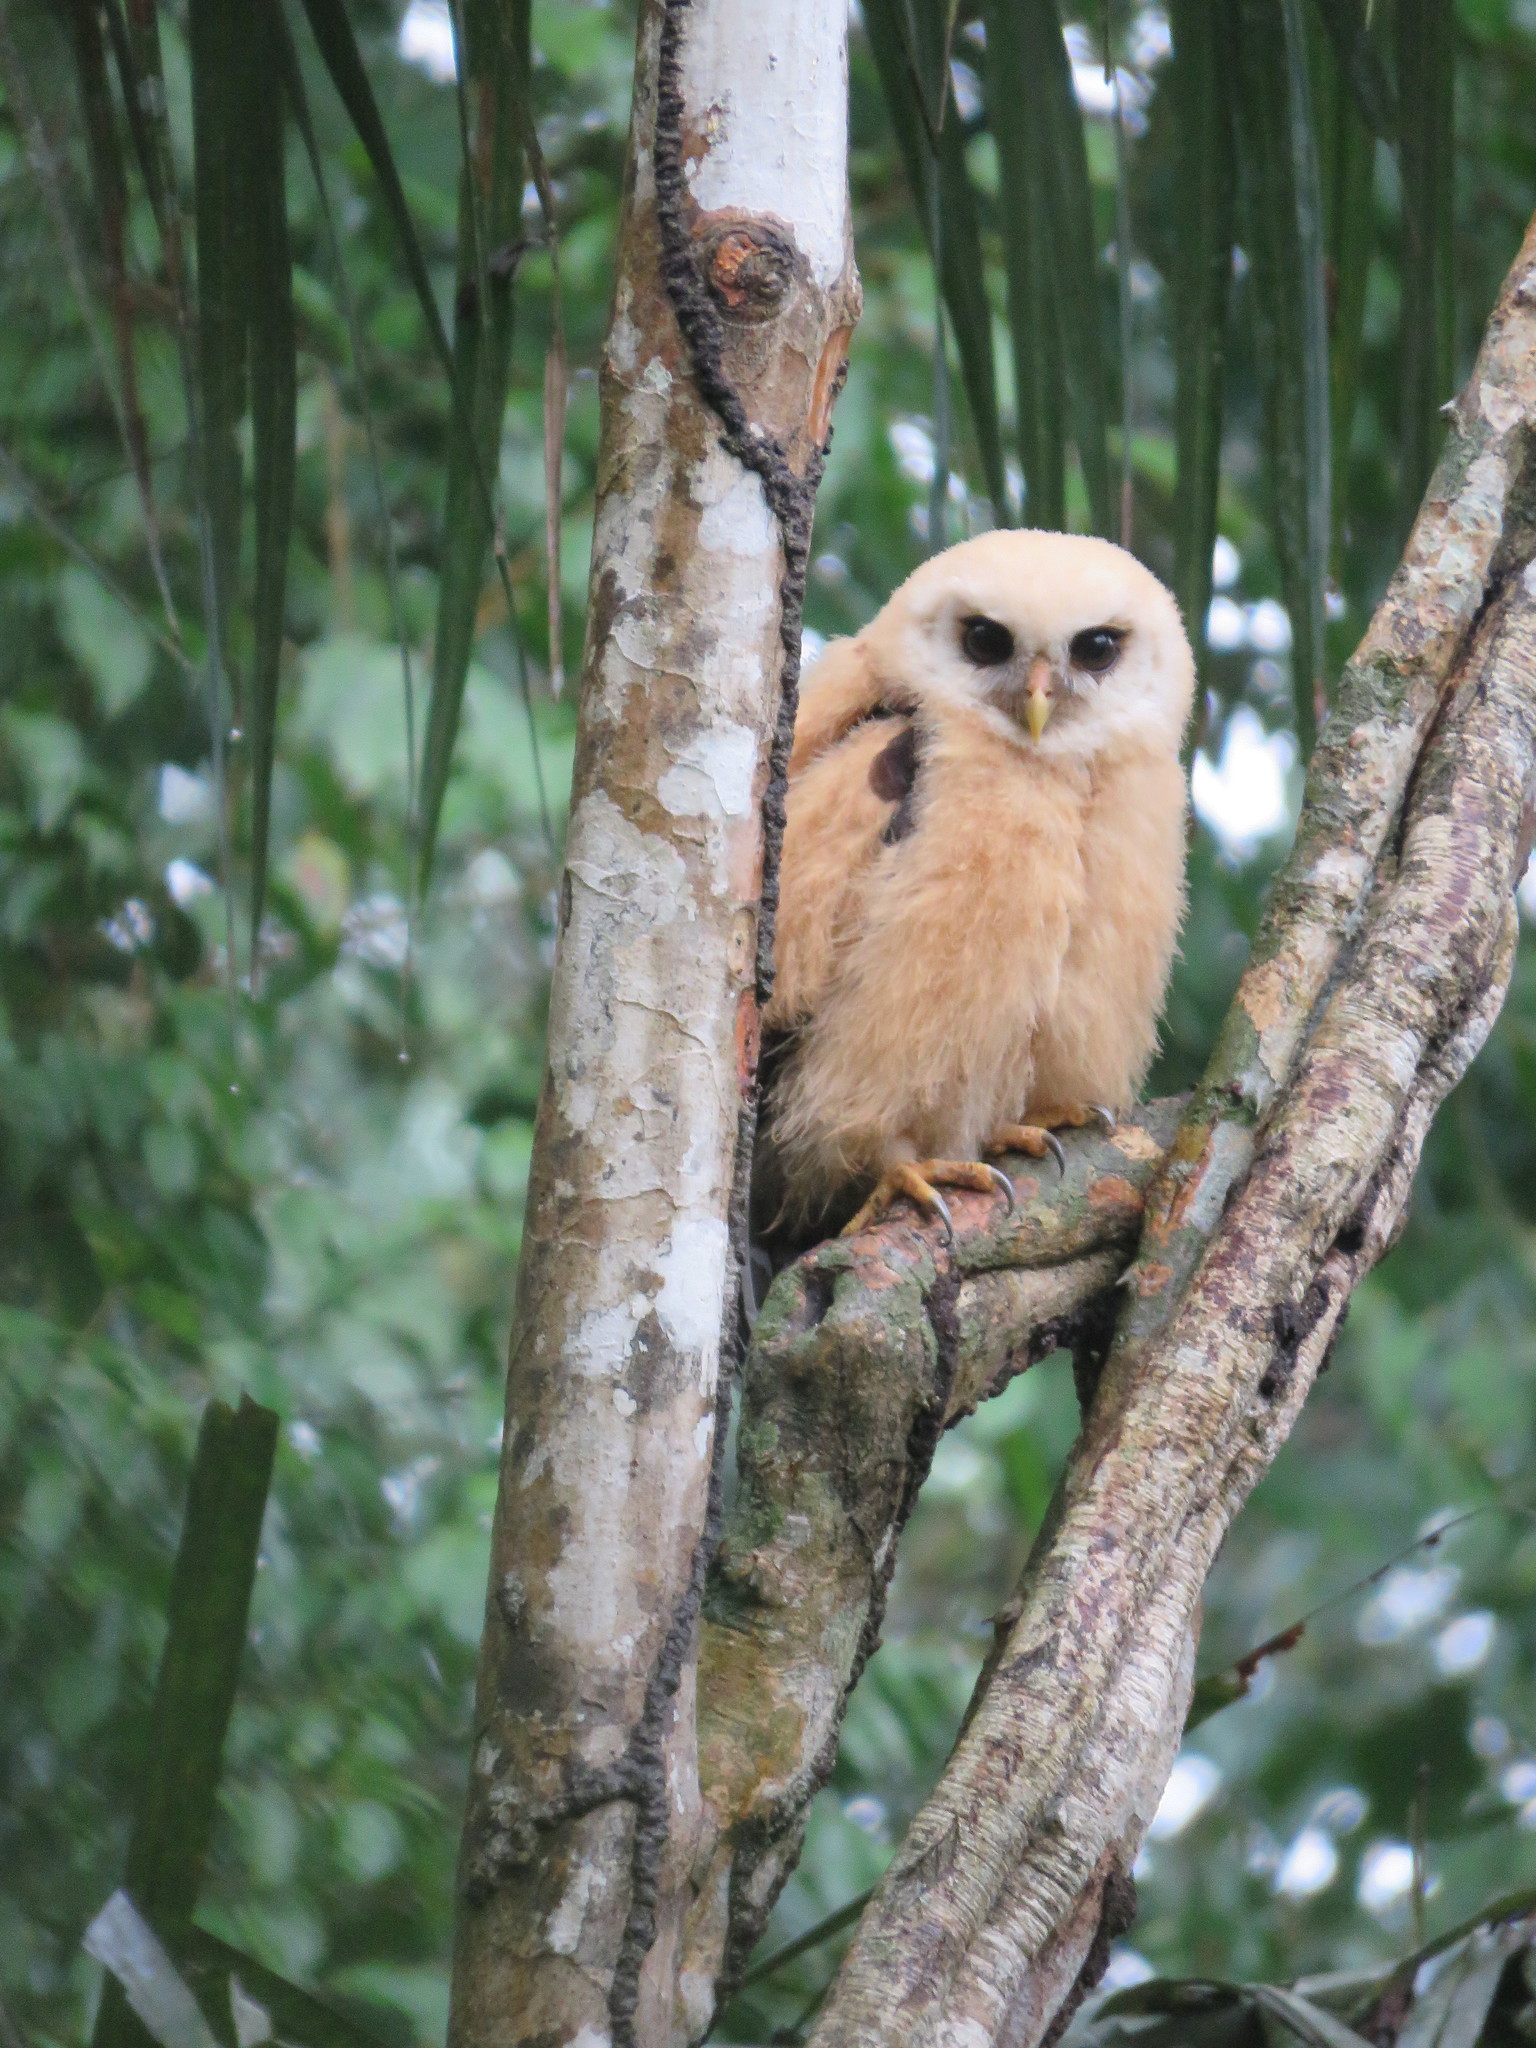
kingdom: Animalia
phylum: Chordata
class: Aves
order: Strigiformes
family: Strigidae
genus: Strix
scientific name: Strix virgata
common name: Mottled owl
